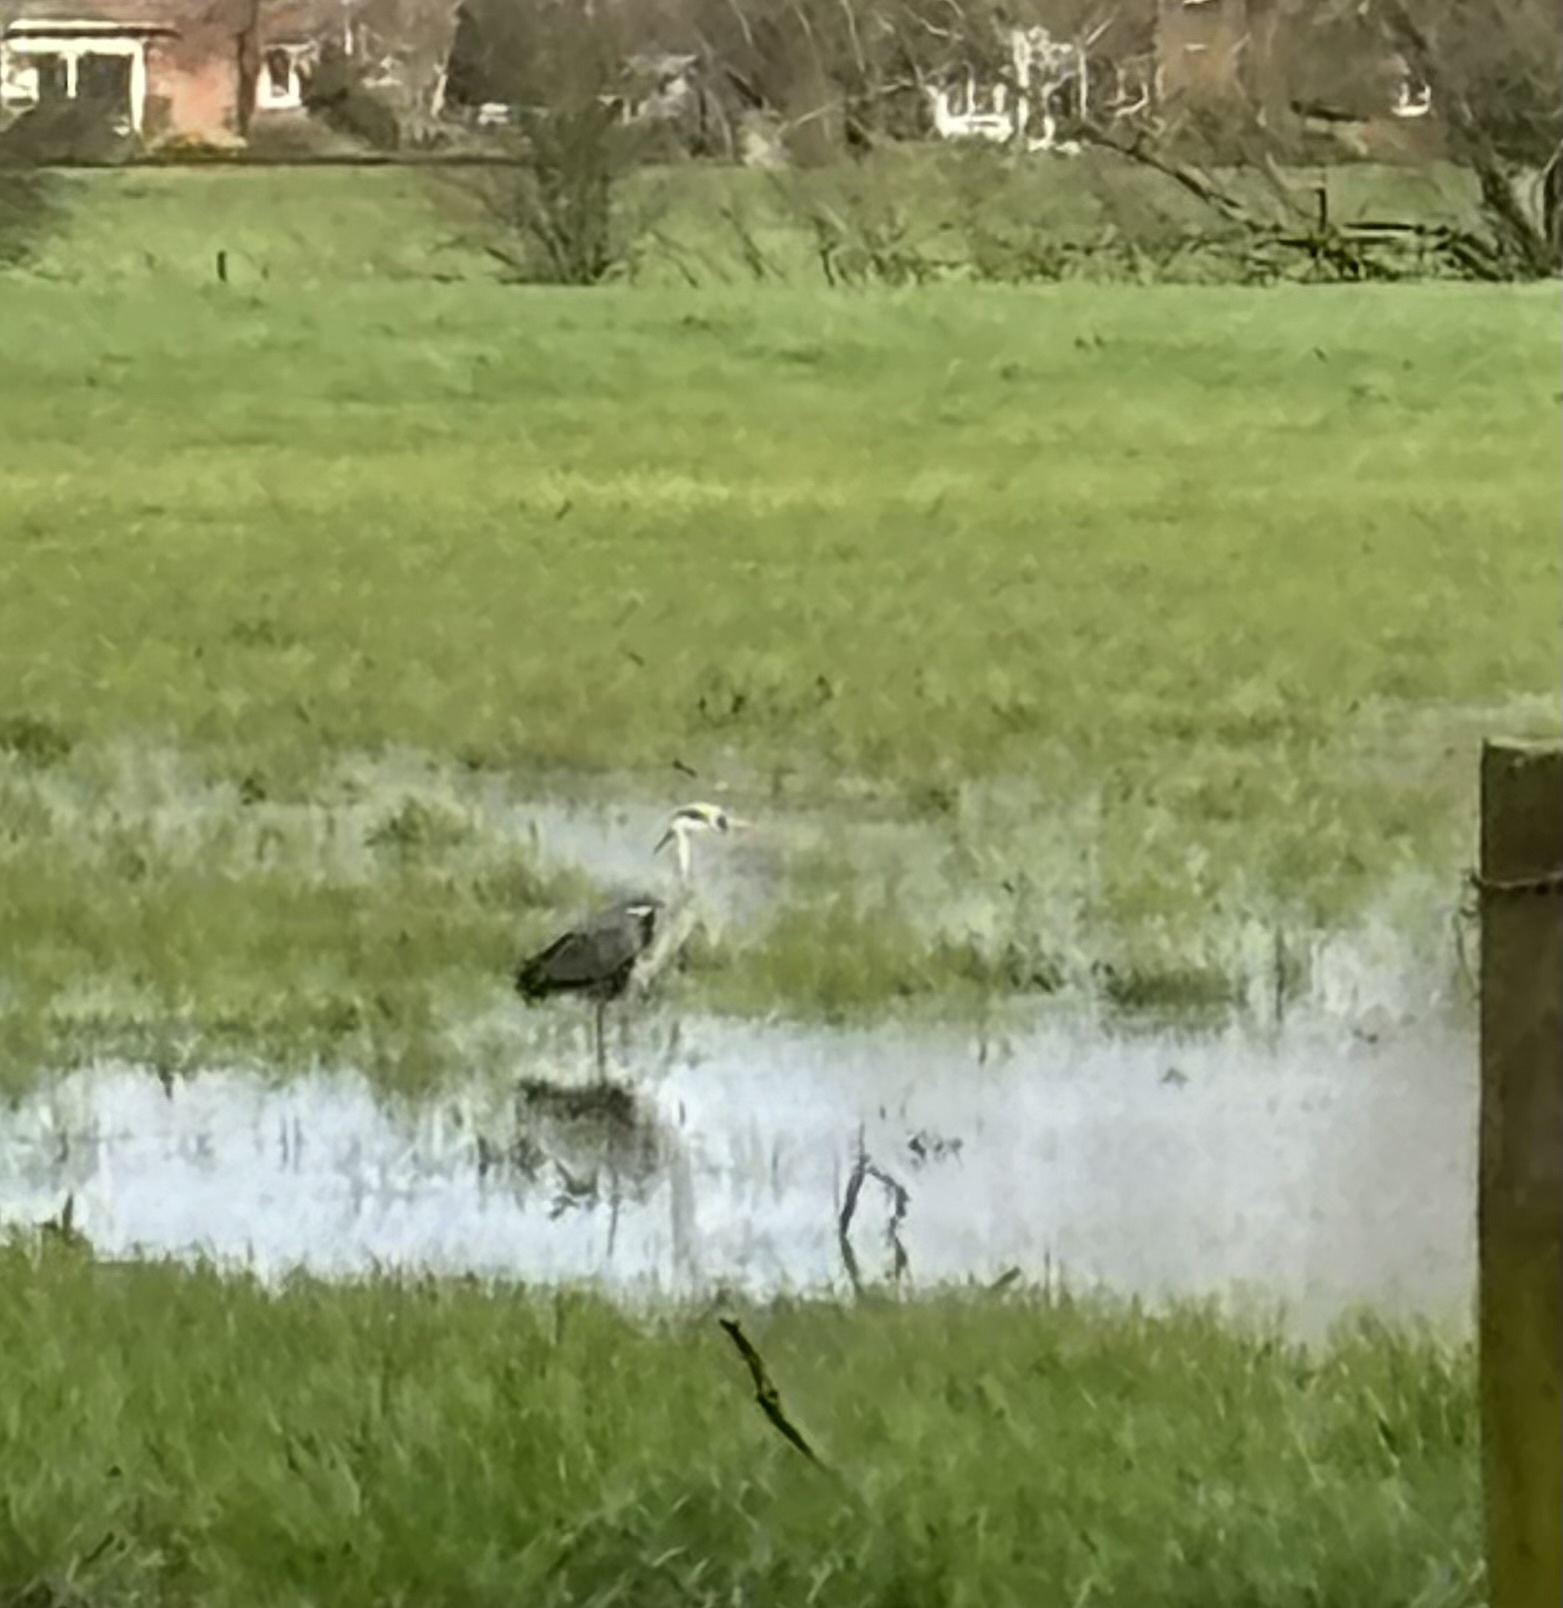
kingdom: Animalia
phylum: Chordata
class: Aves
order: Pelecaniformes
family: Ardeidae
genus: Ardea
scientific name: Ardea cinerea
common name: Grey heron
